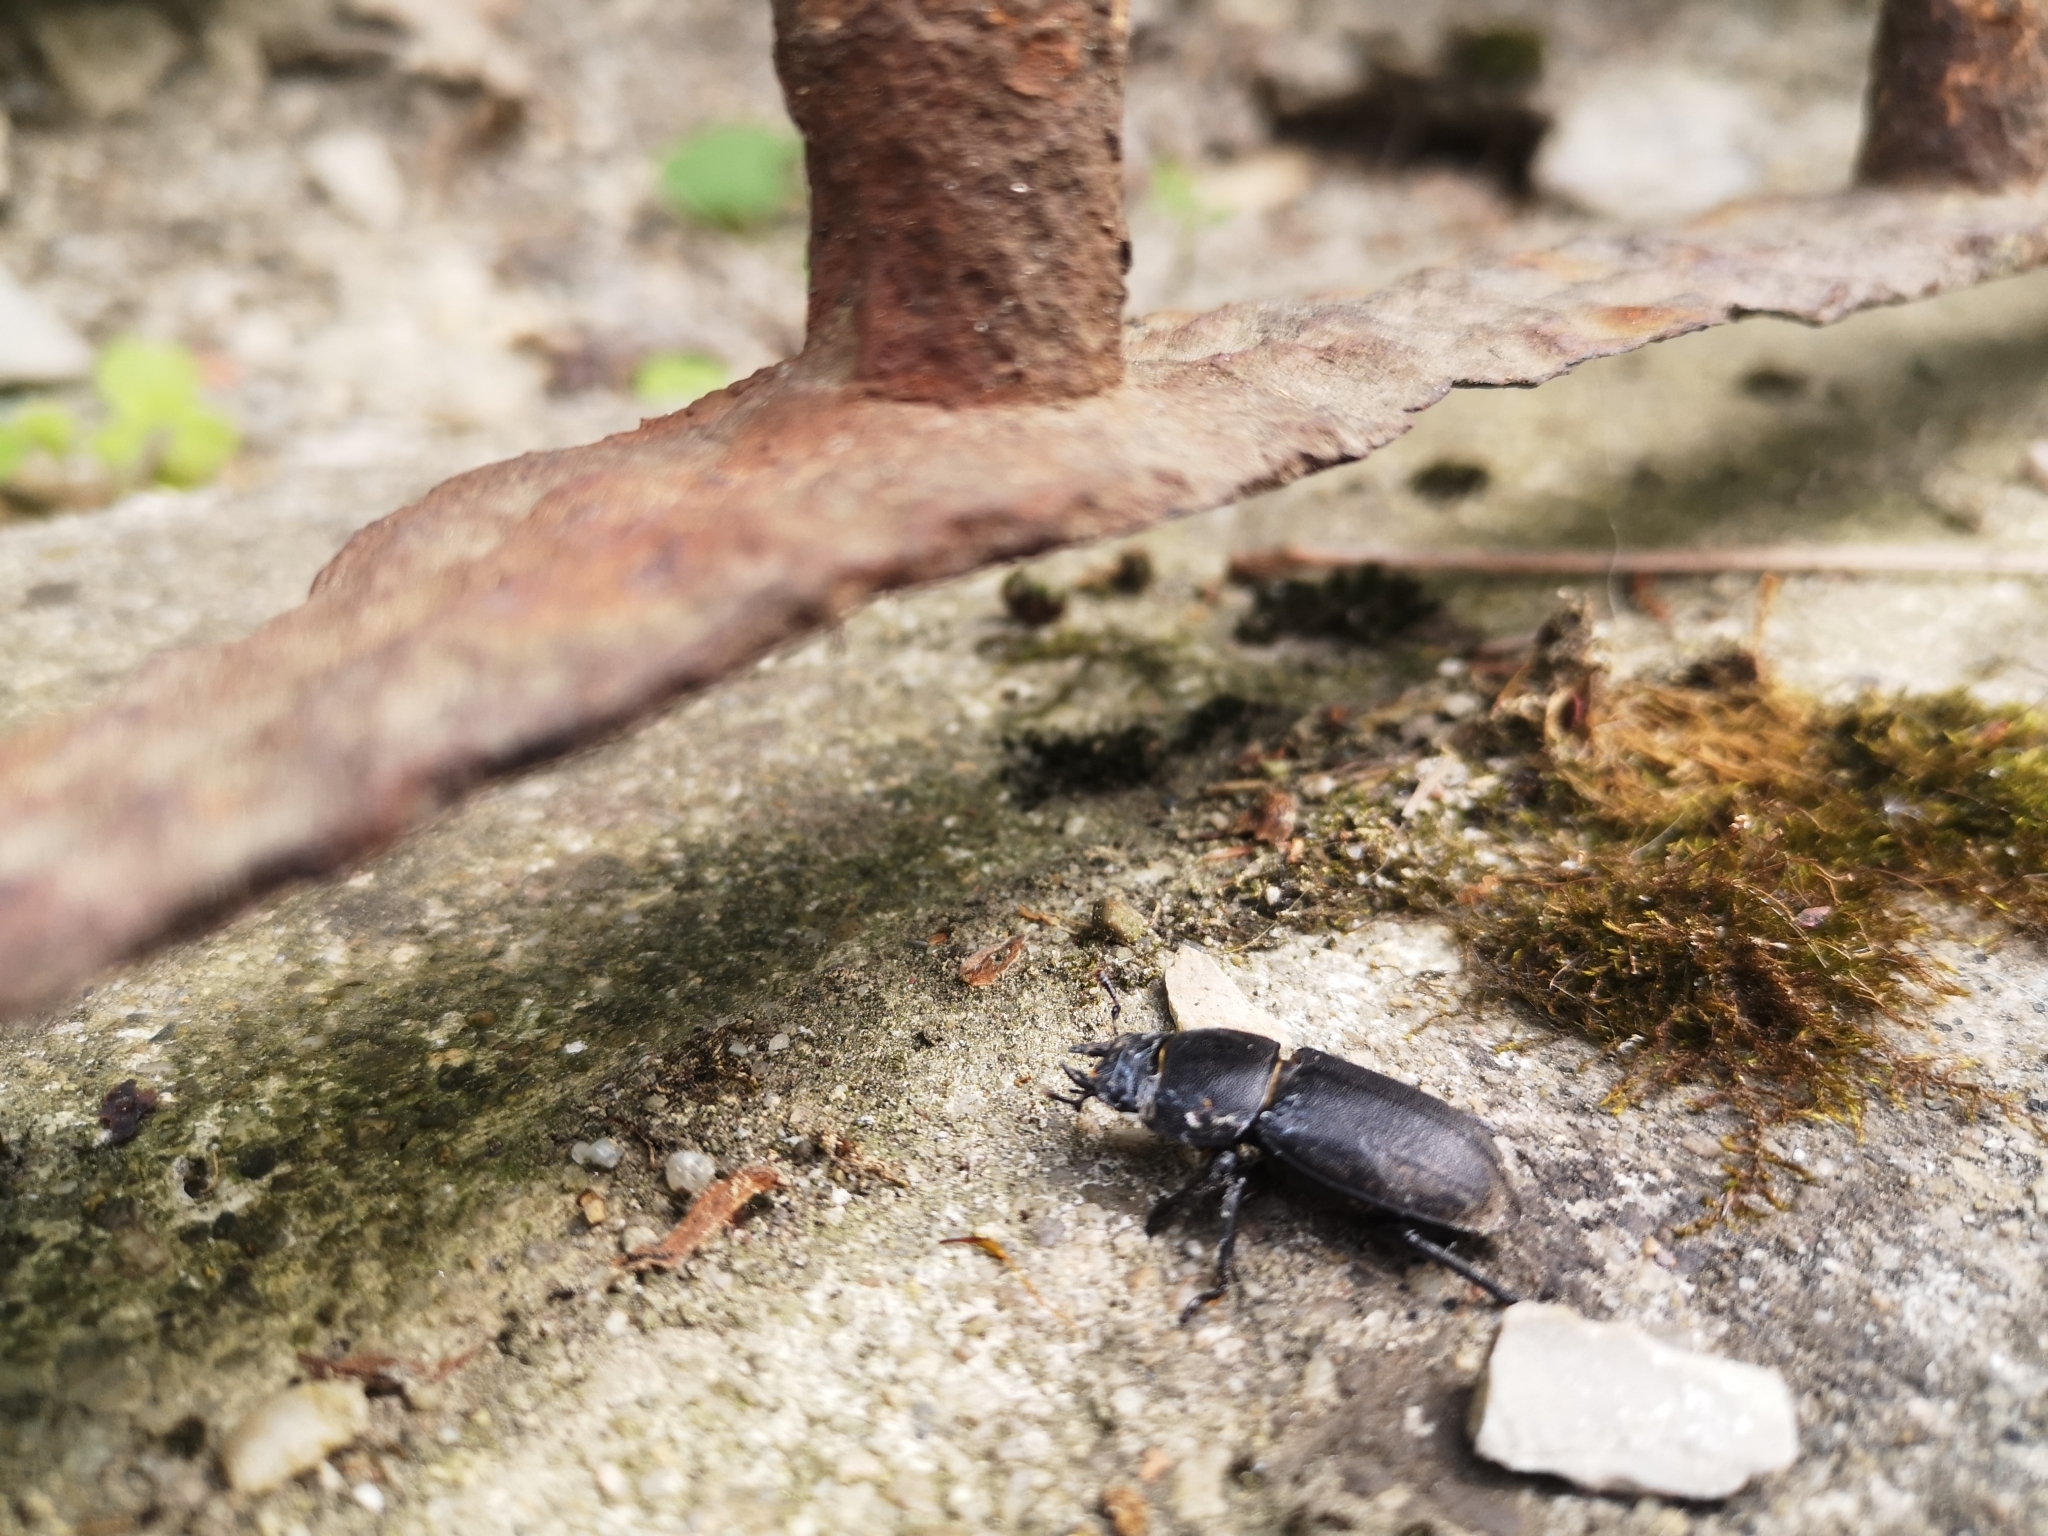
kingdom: Animalia
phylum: Arthropoda
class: Insecta
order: Coleoptera
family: Lucanidae
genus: Dorcus
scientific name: Dorcus parallelipipedus
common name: Lesser stag beetle
